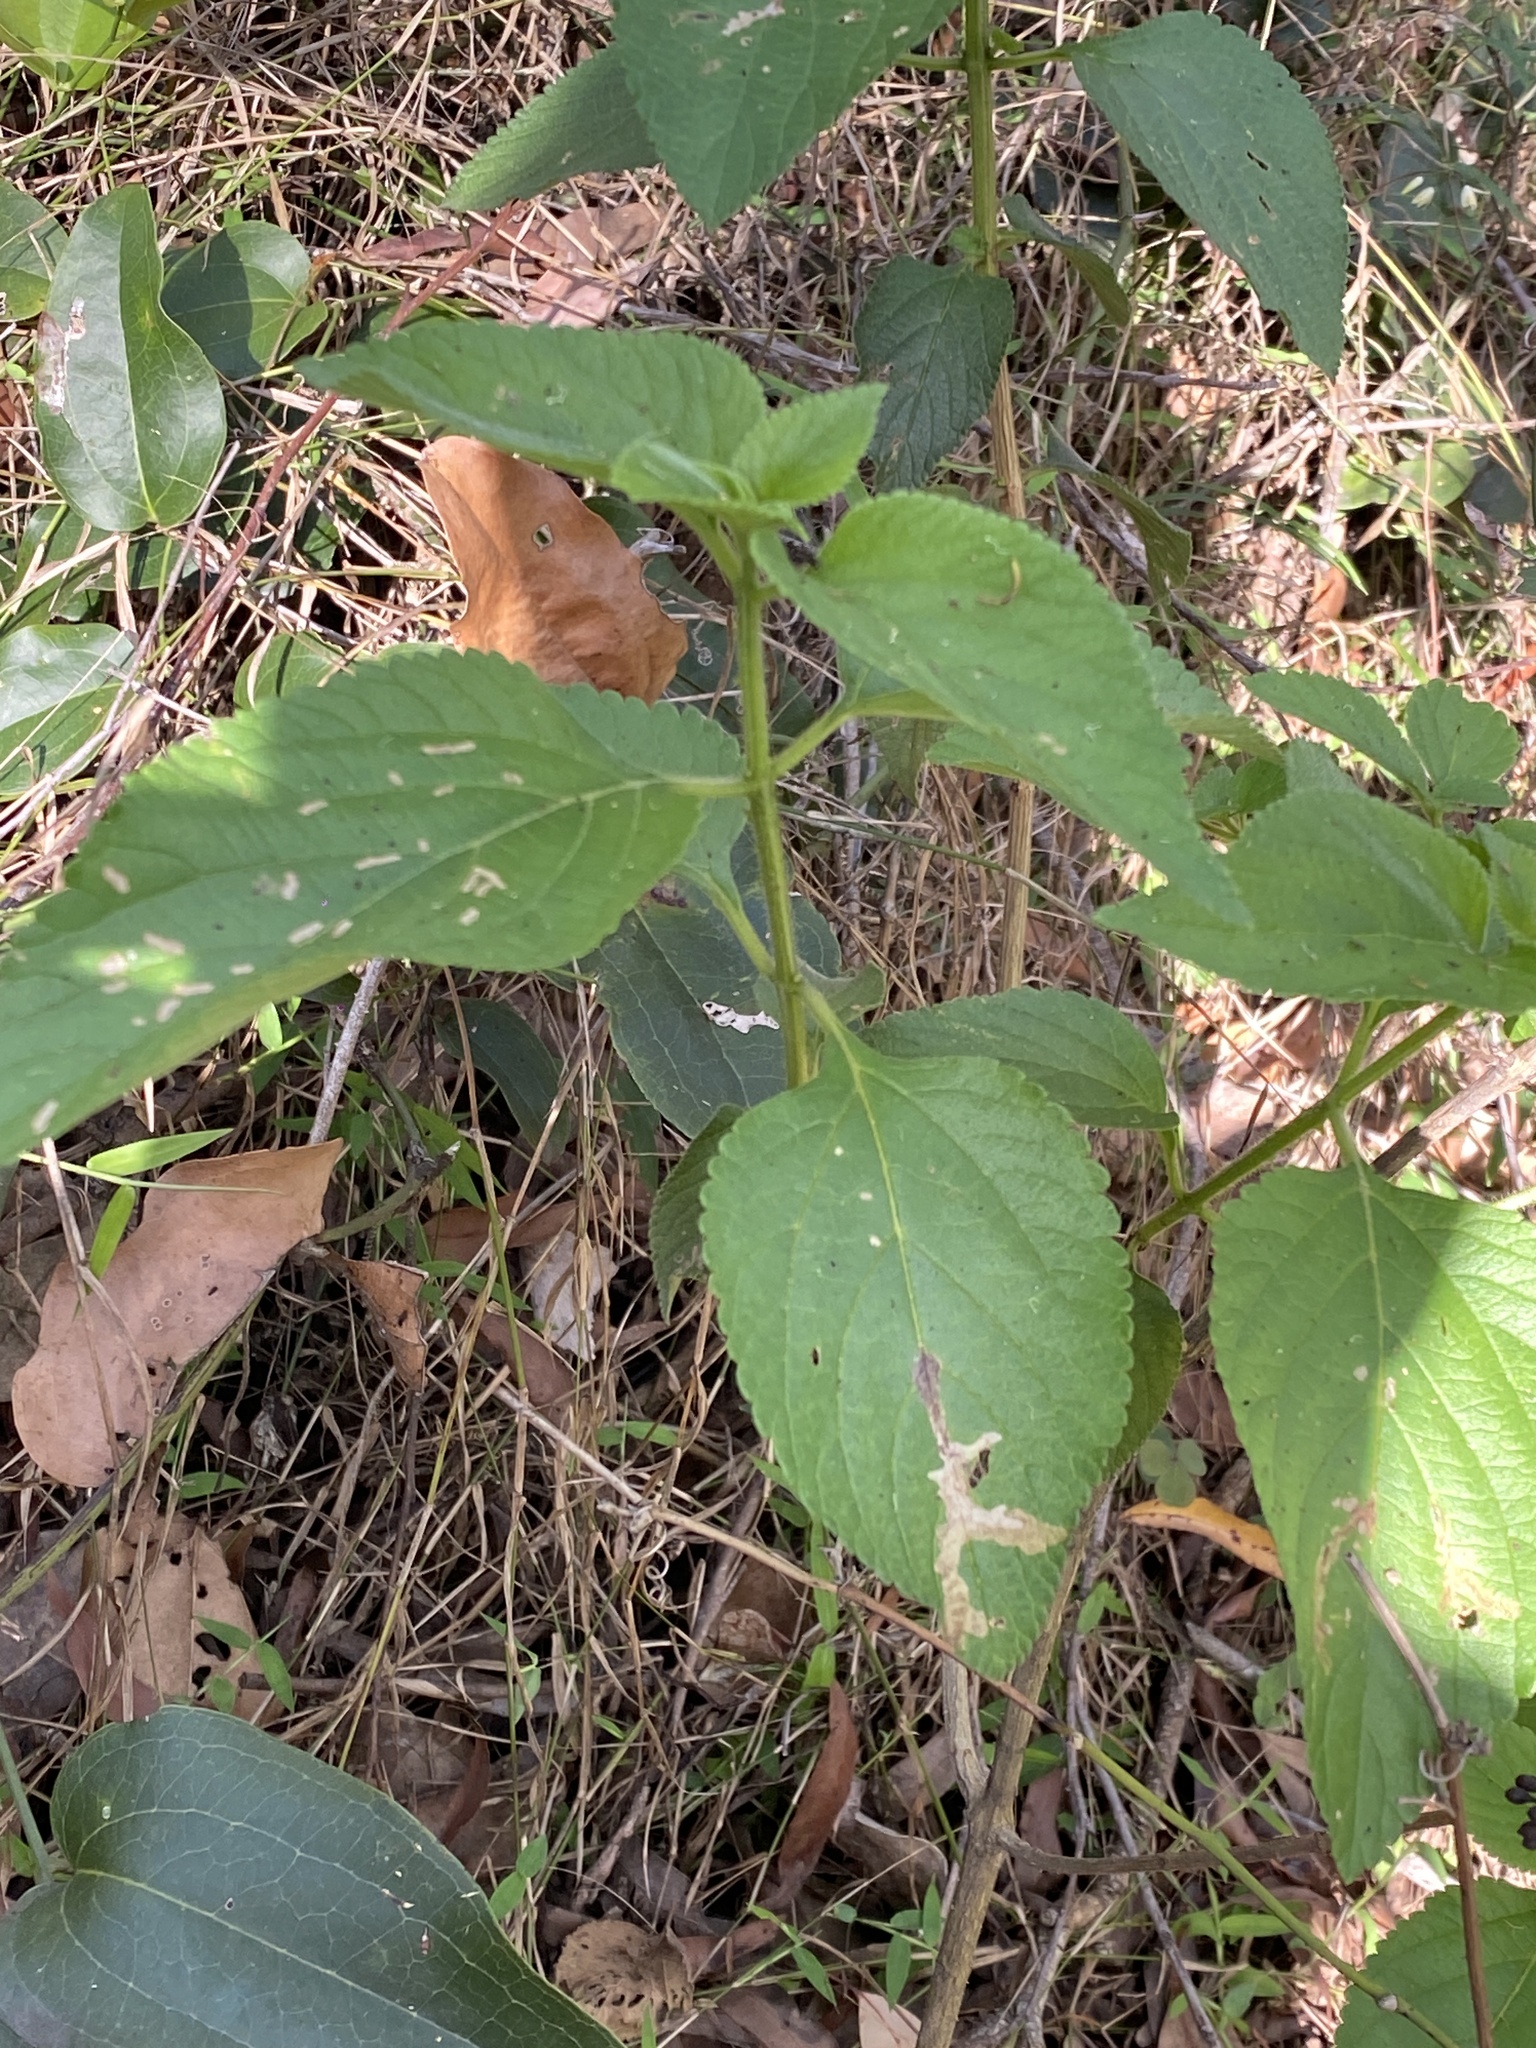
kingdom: Plantae
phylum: Tracheophyta
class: Magnoliopsida
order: Lamiales
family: Verbenaceae
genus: Lantana
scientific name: Lantana camara
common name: Lantana
